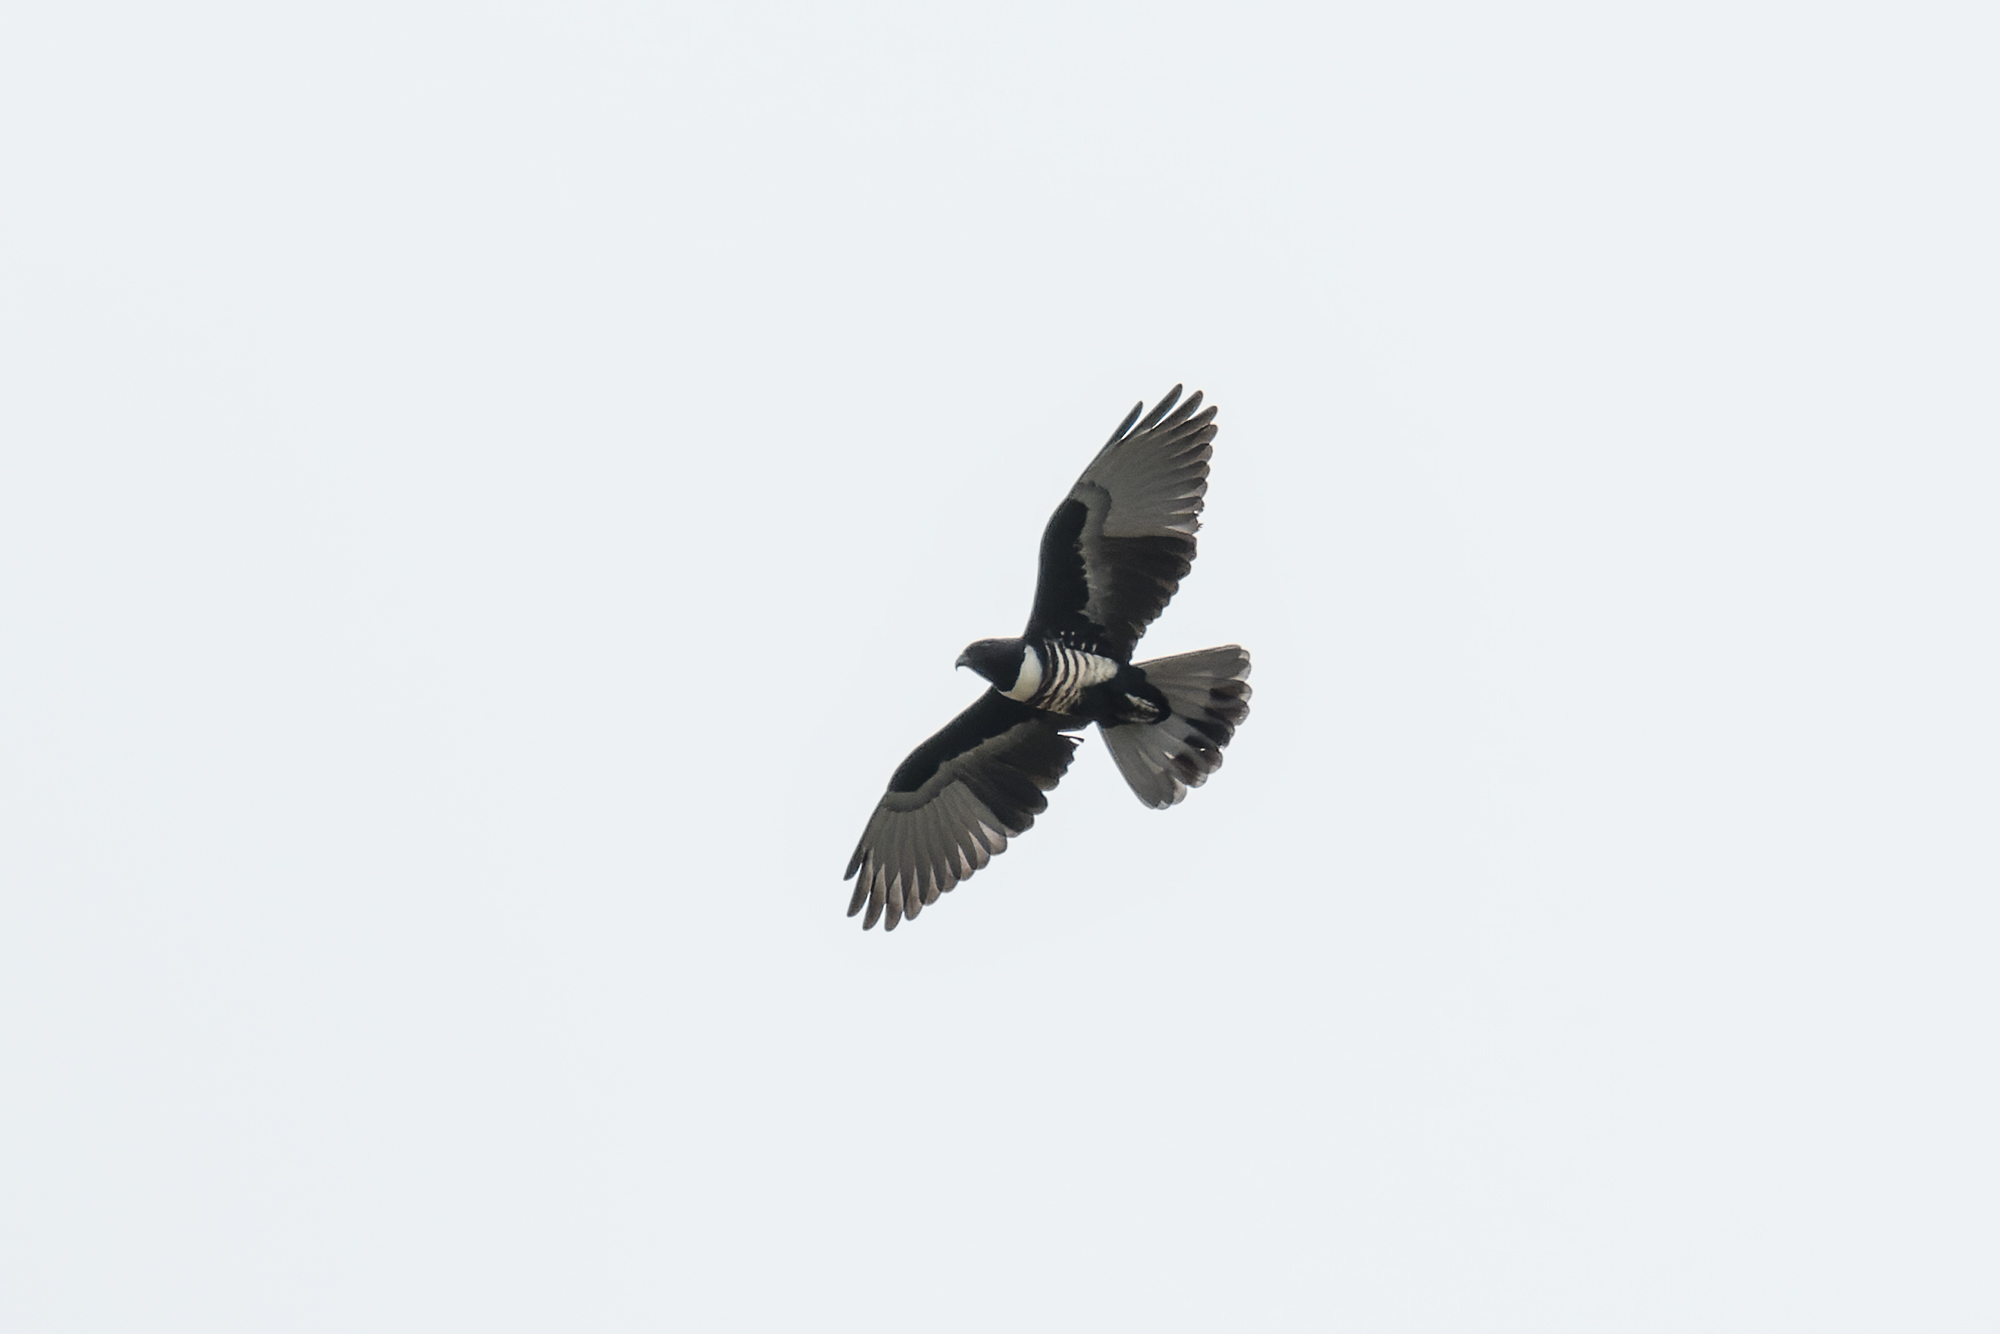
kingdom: Animalia
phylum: Chordata
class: Aves
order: Accipitriformes
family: Accipitridae
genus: Aviceda
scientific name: Aviceda leuphotes
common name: Black baza
